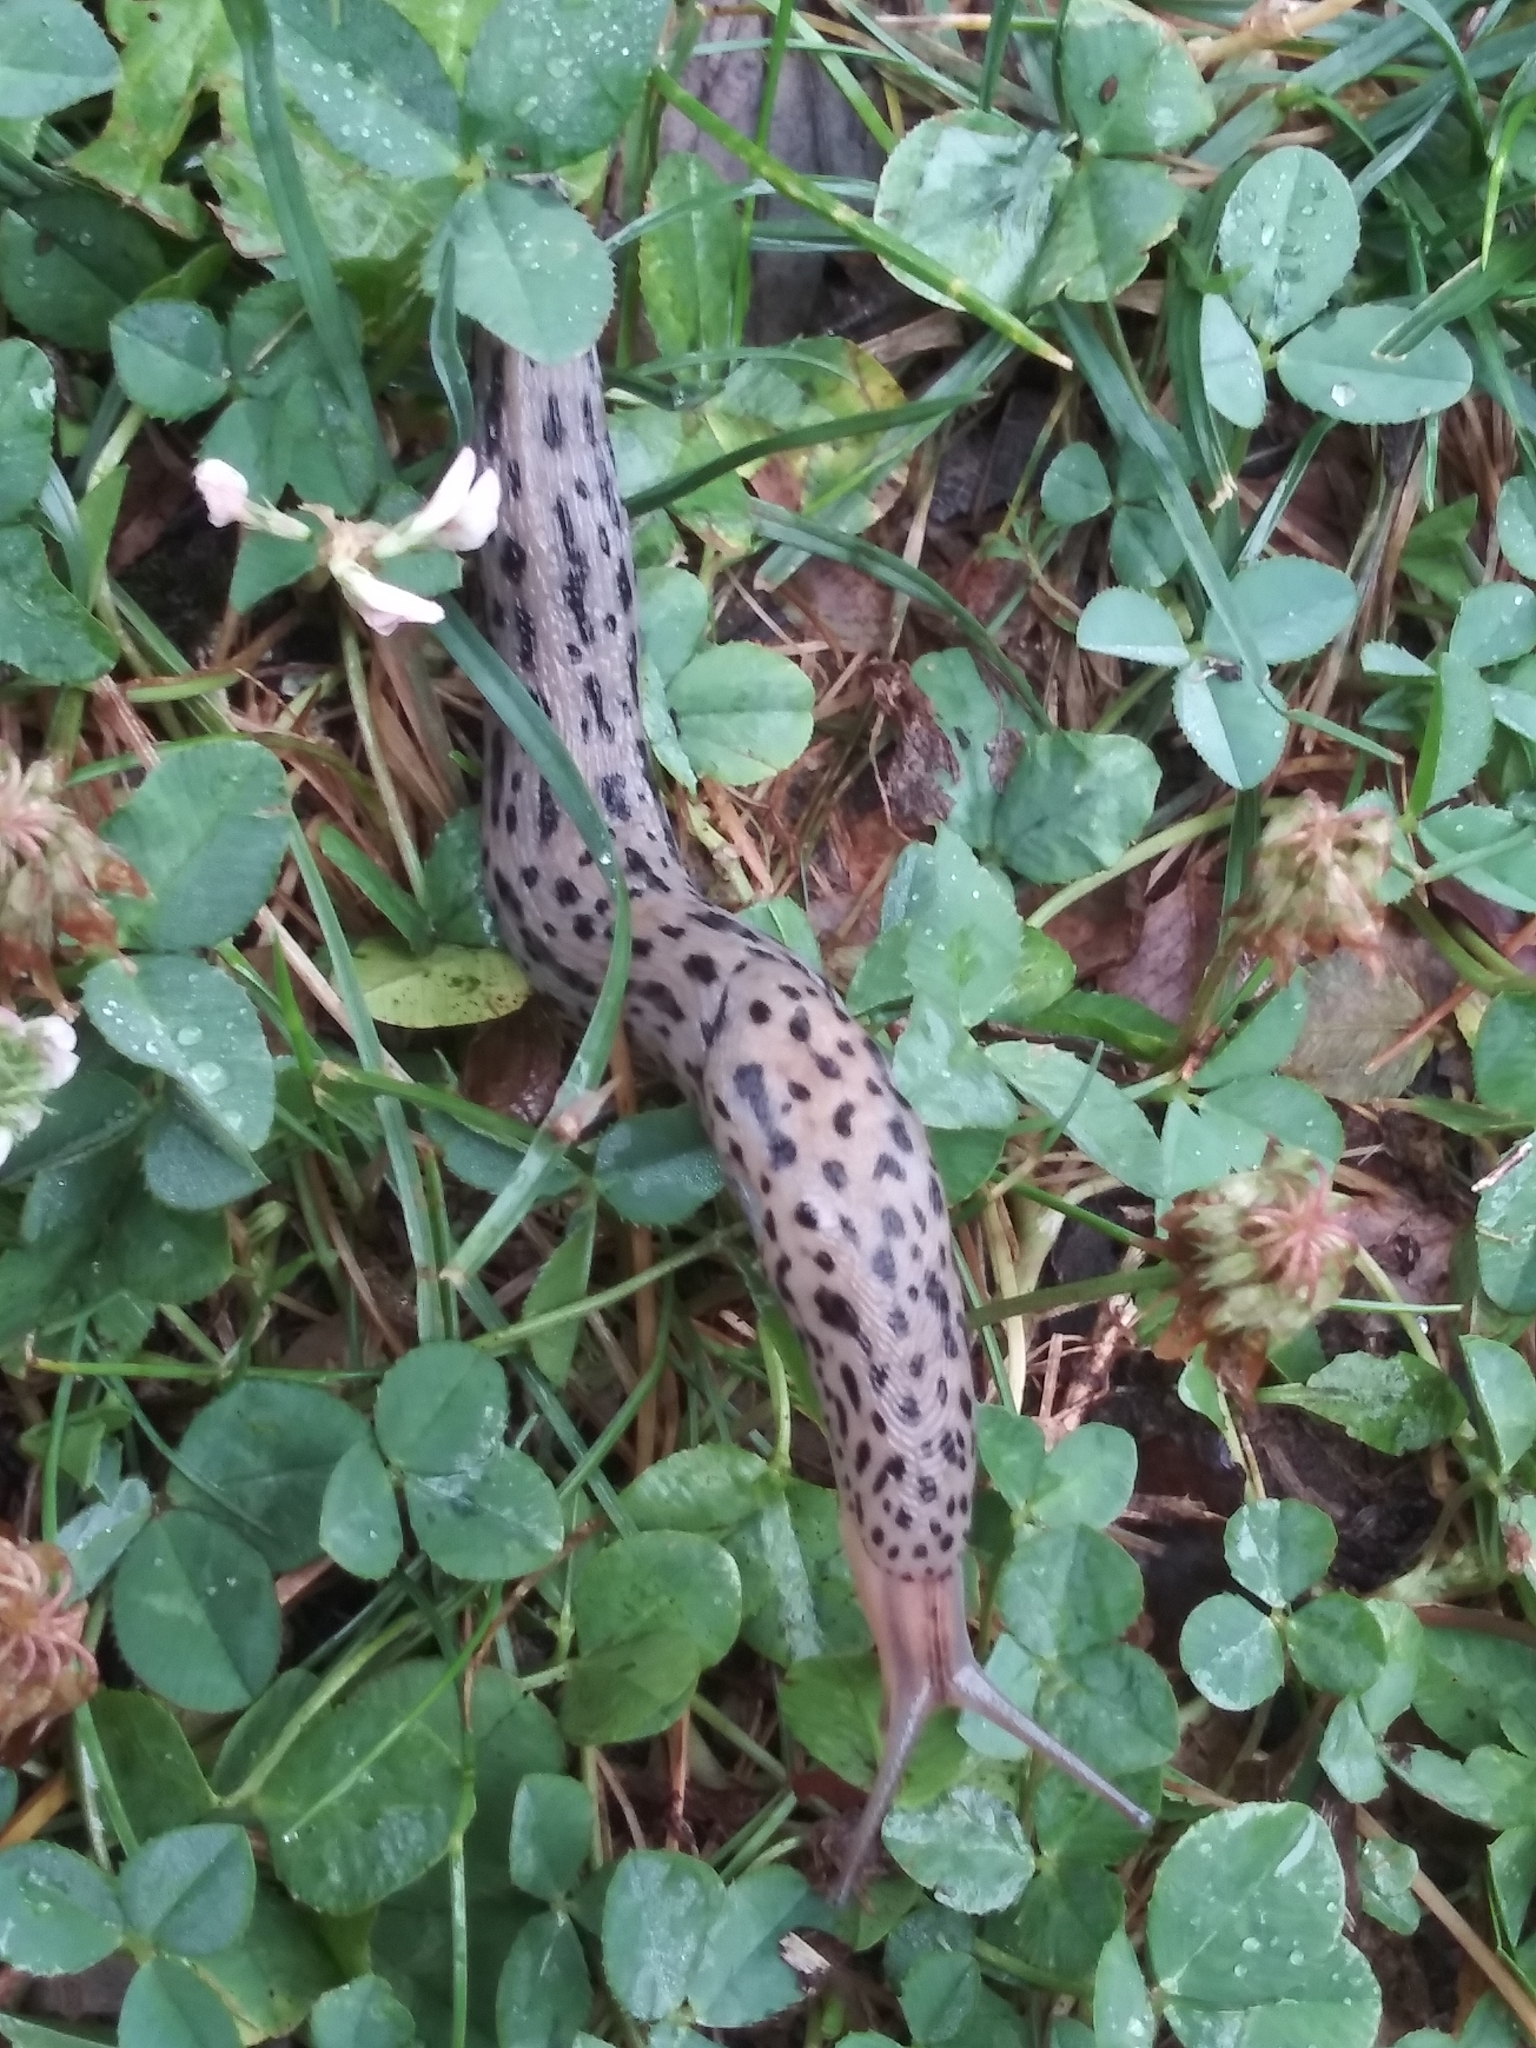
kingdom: Animalia
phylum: Mollusca
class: Gastropoda
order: Stylommatophora
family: Limacidae
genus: Limax
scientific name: Limax maximus
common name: Great grey slug
